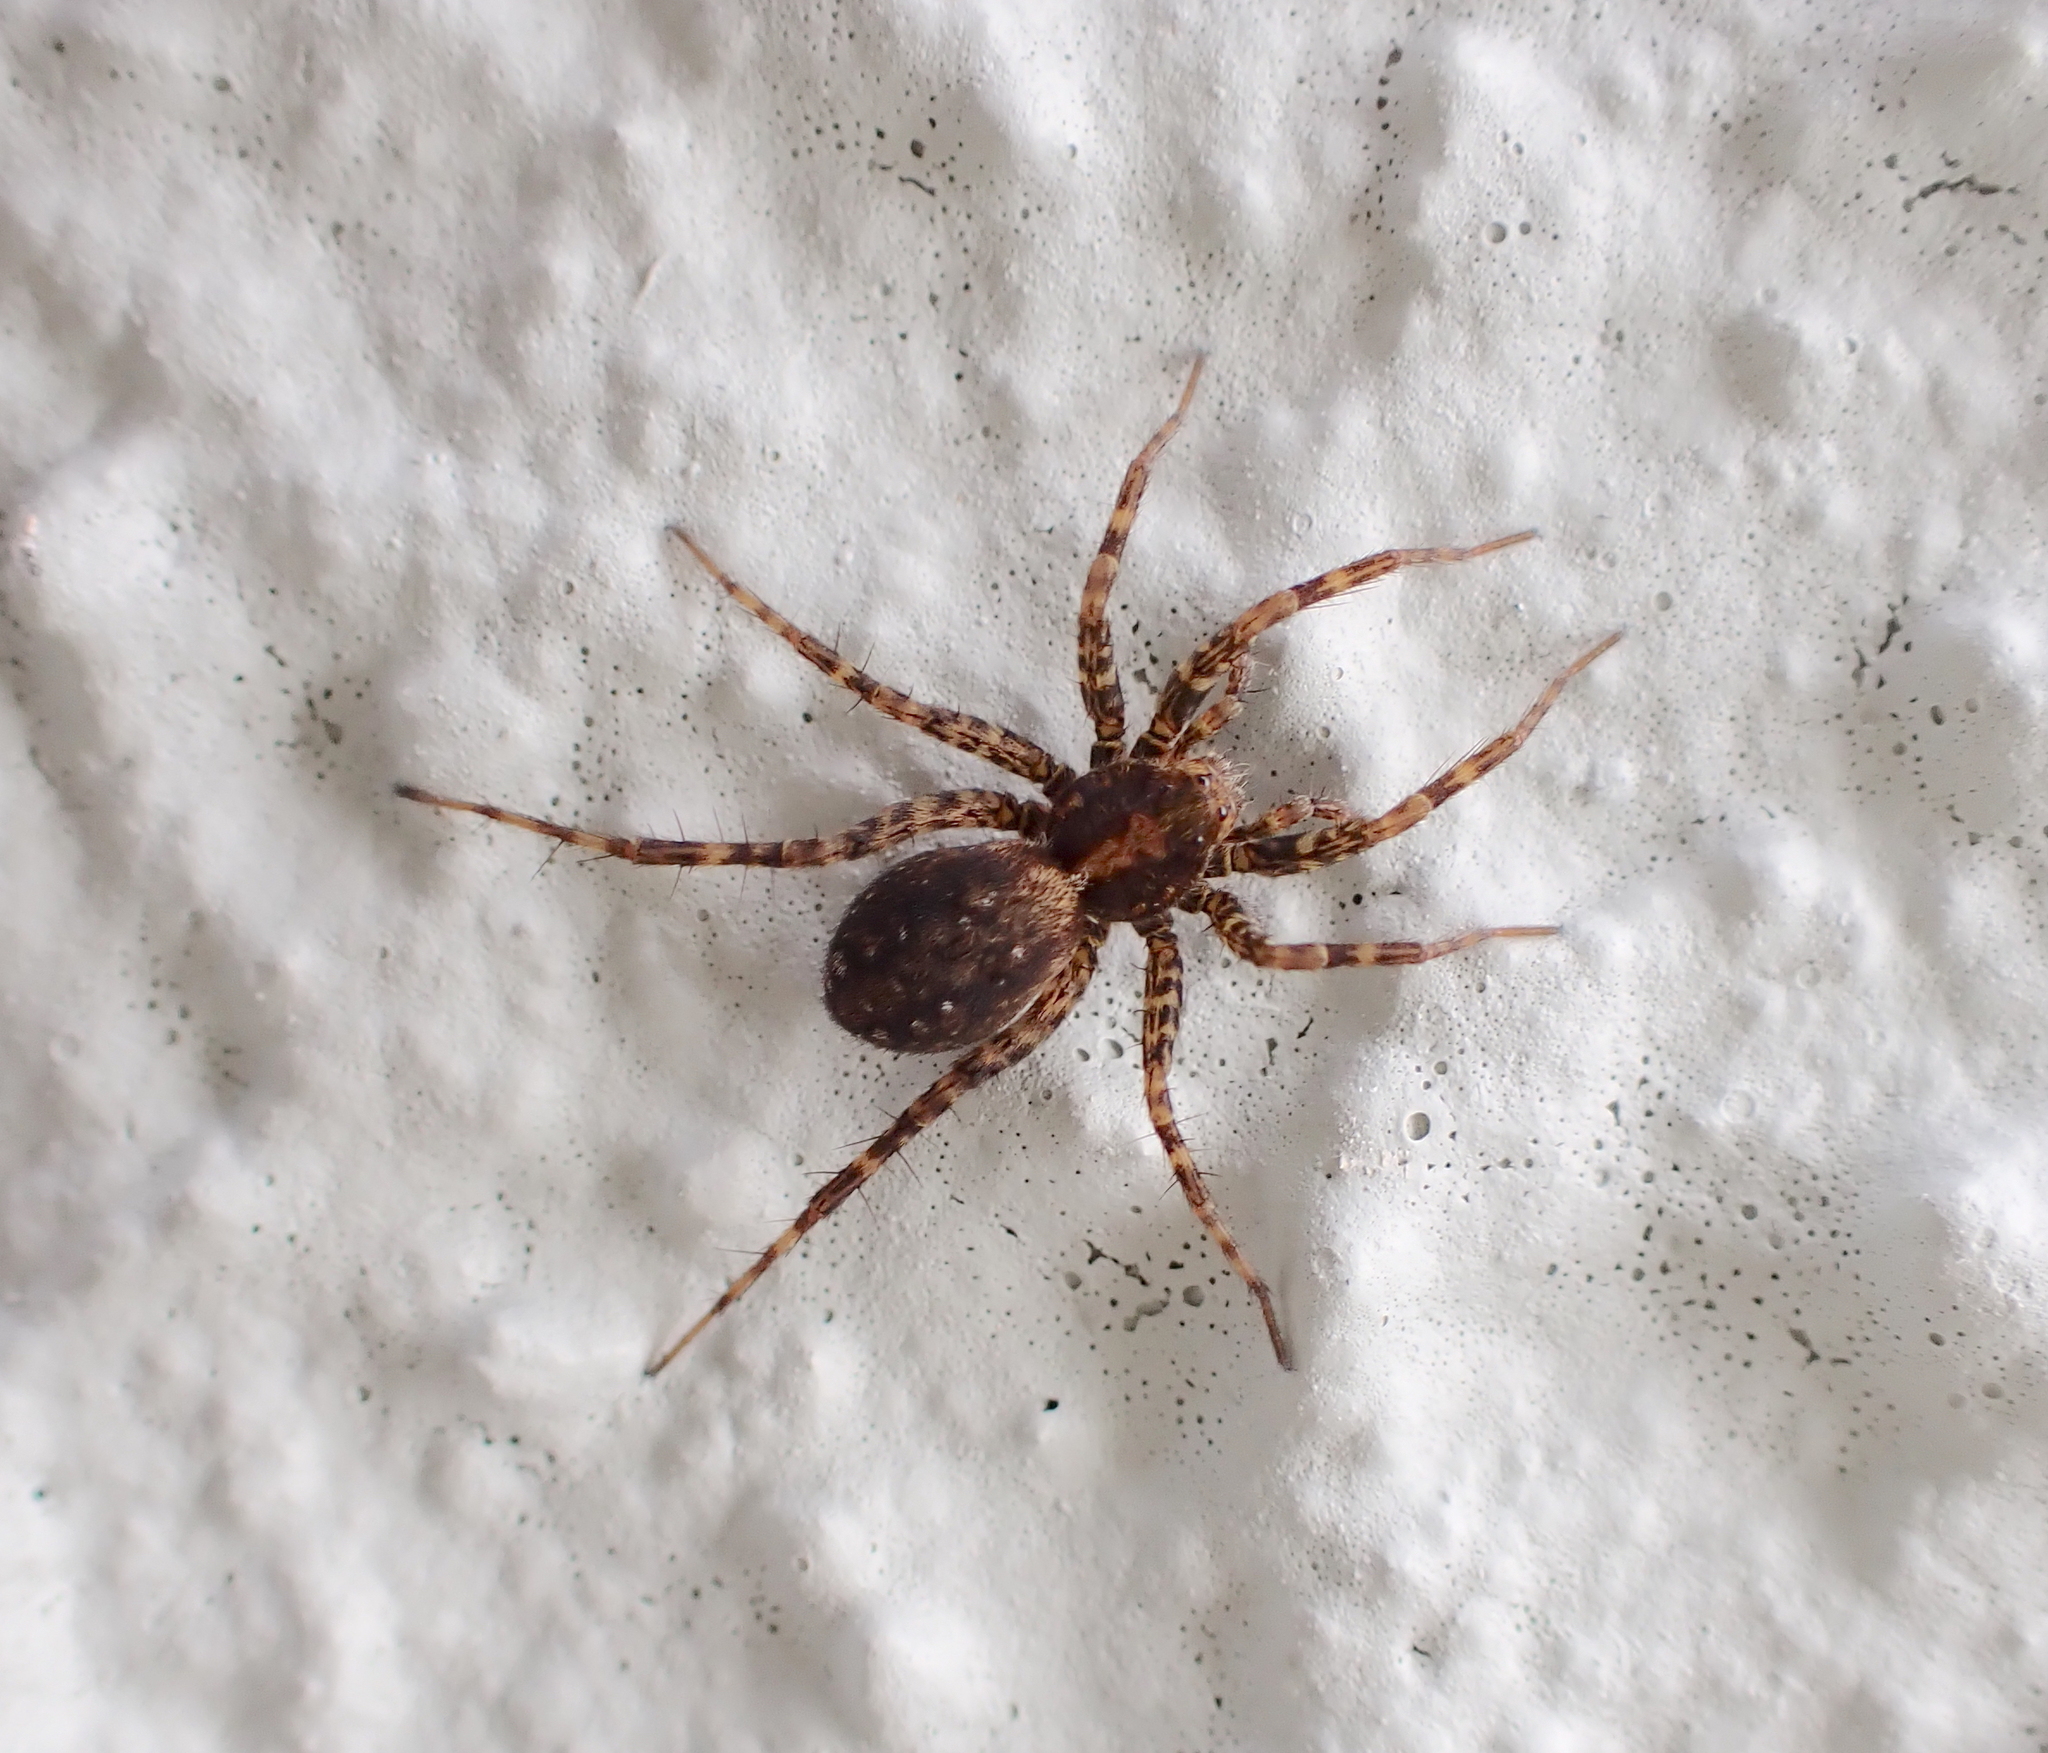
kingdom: Animalia
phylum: Arthropoda
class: Arachnida
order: Araneae
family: Lycosidae
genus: Pardosa
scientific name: Pardosa agricola
